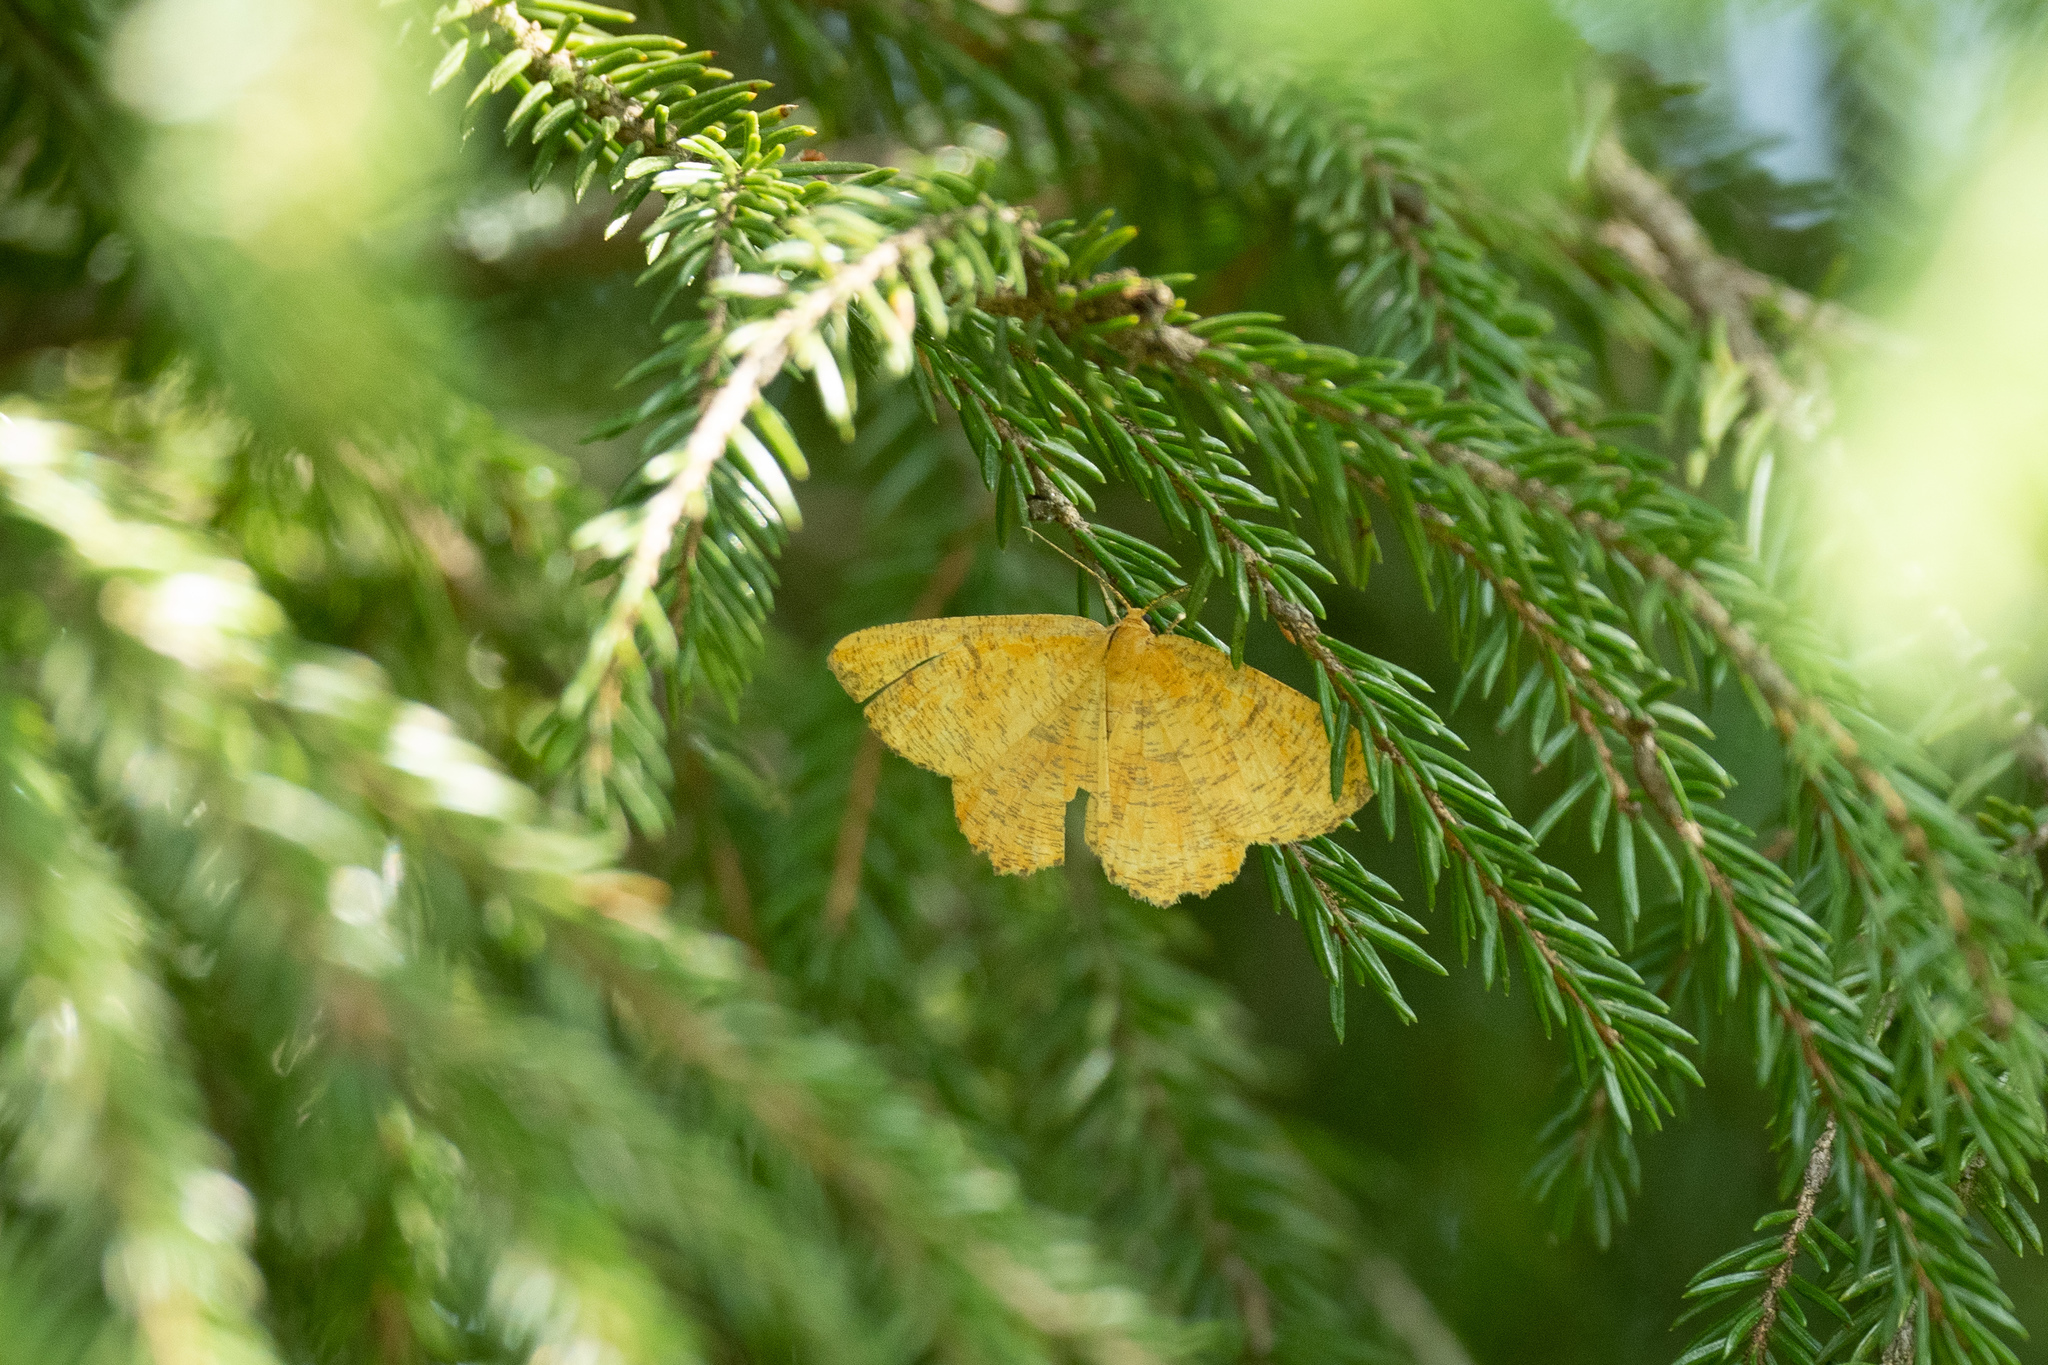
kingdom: Animalia
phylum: Arthropoda
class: Insecta
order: Lepidoptera
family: Geometridae
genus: Angerona
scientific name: Angerona prunaria
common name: Orange moth
